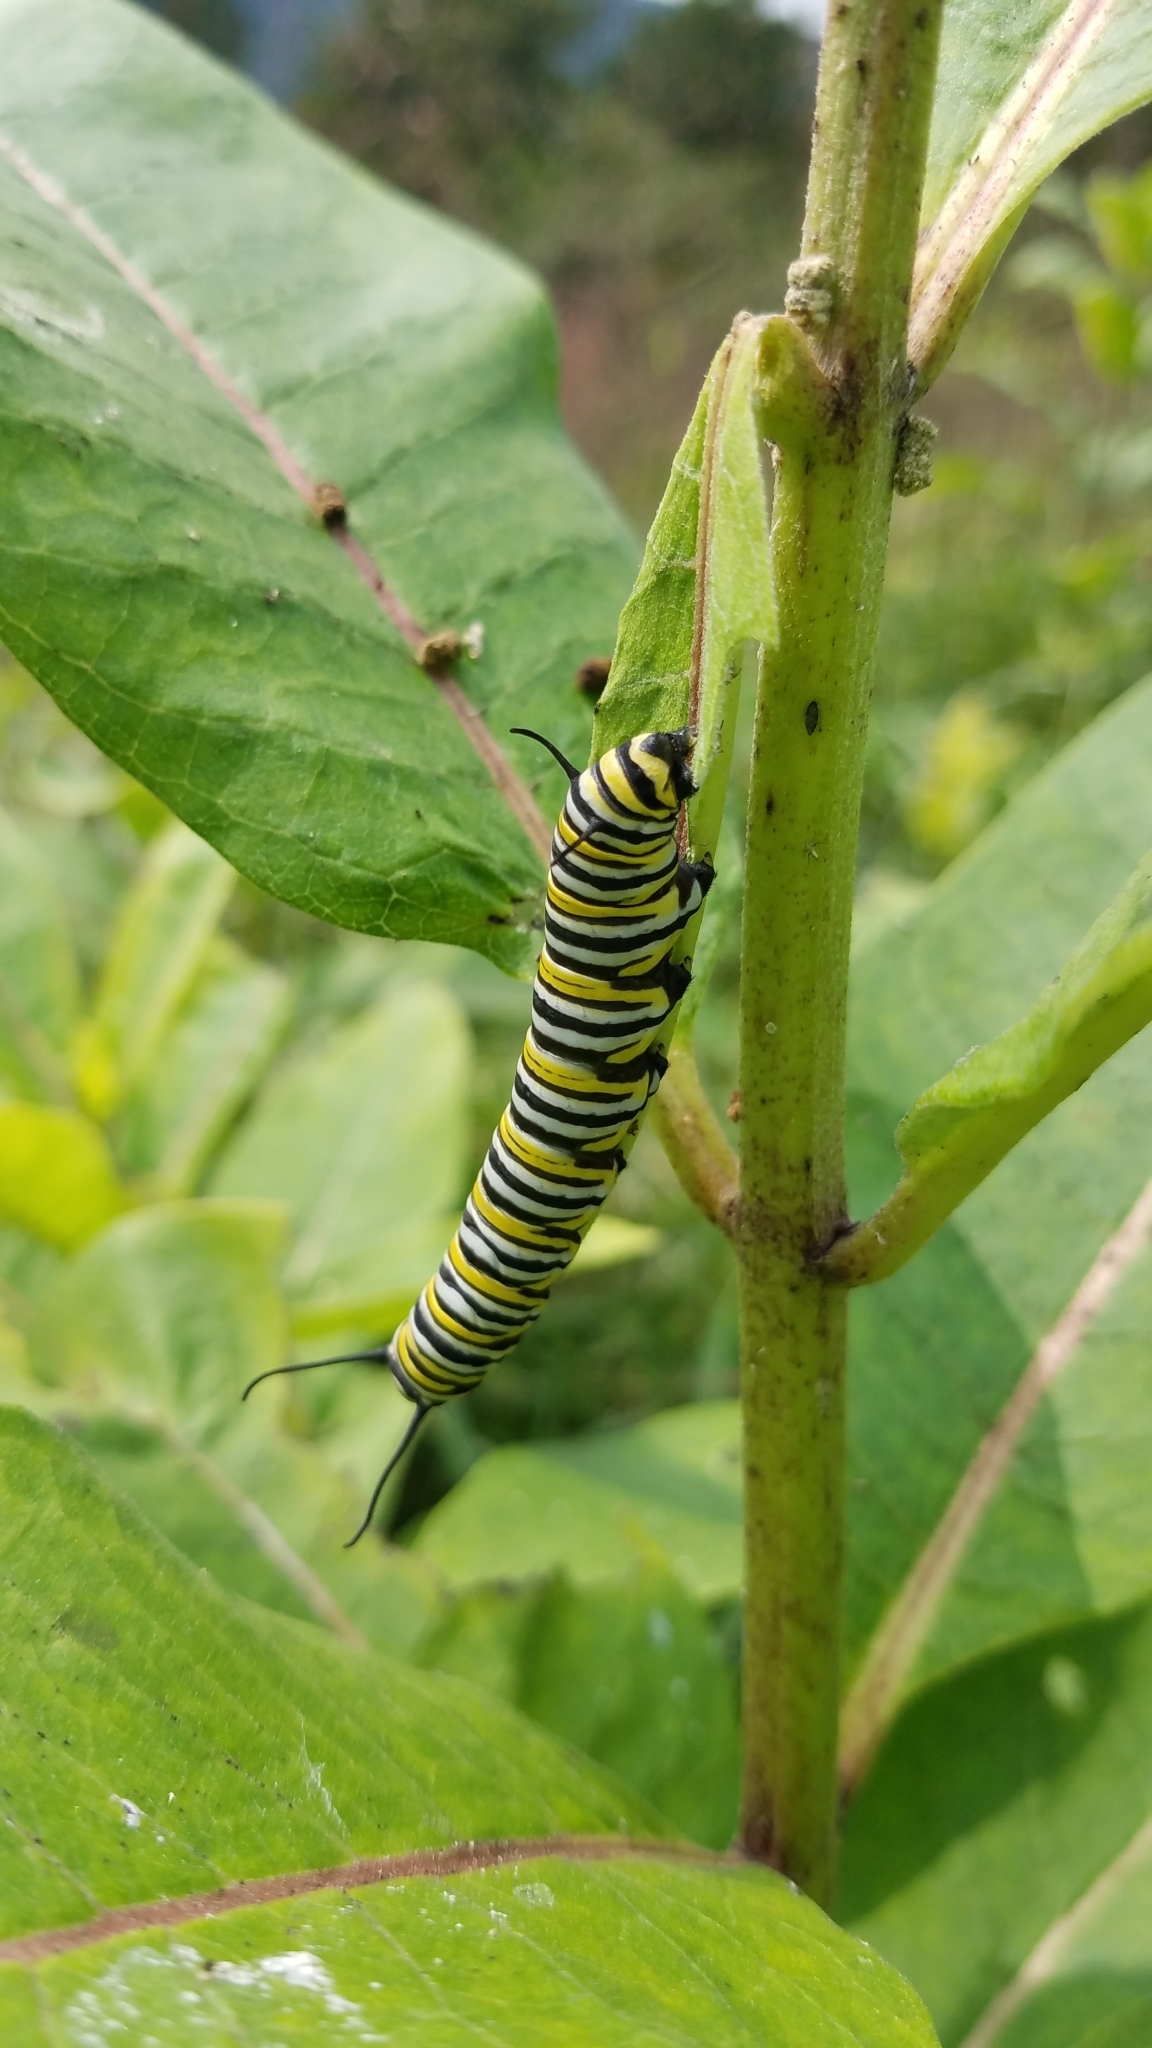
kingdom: Animalia
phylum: Arthropoda
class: Insecta
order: Lepidoptera
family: Nymphalidae
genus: Danaus
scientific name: Danaus plexippus
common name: Monarch
